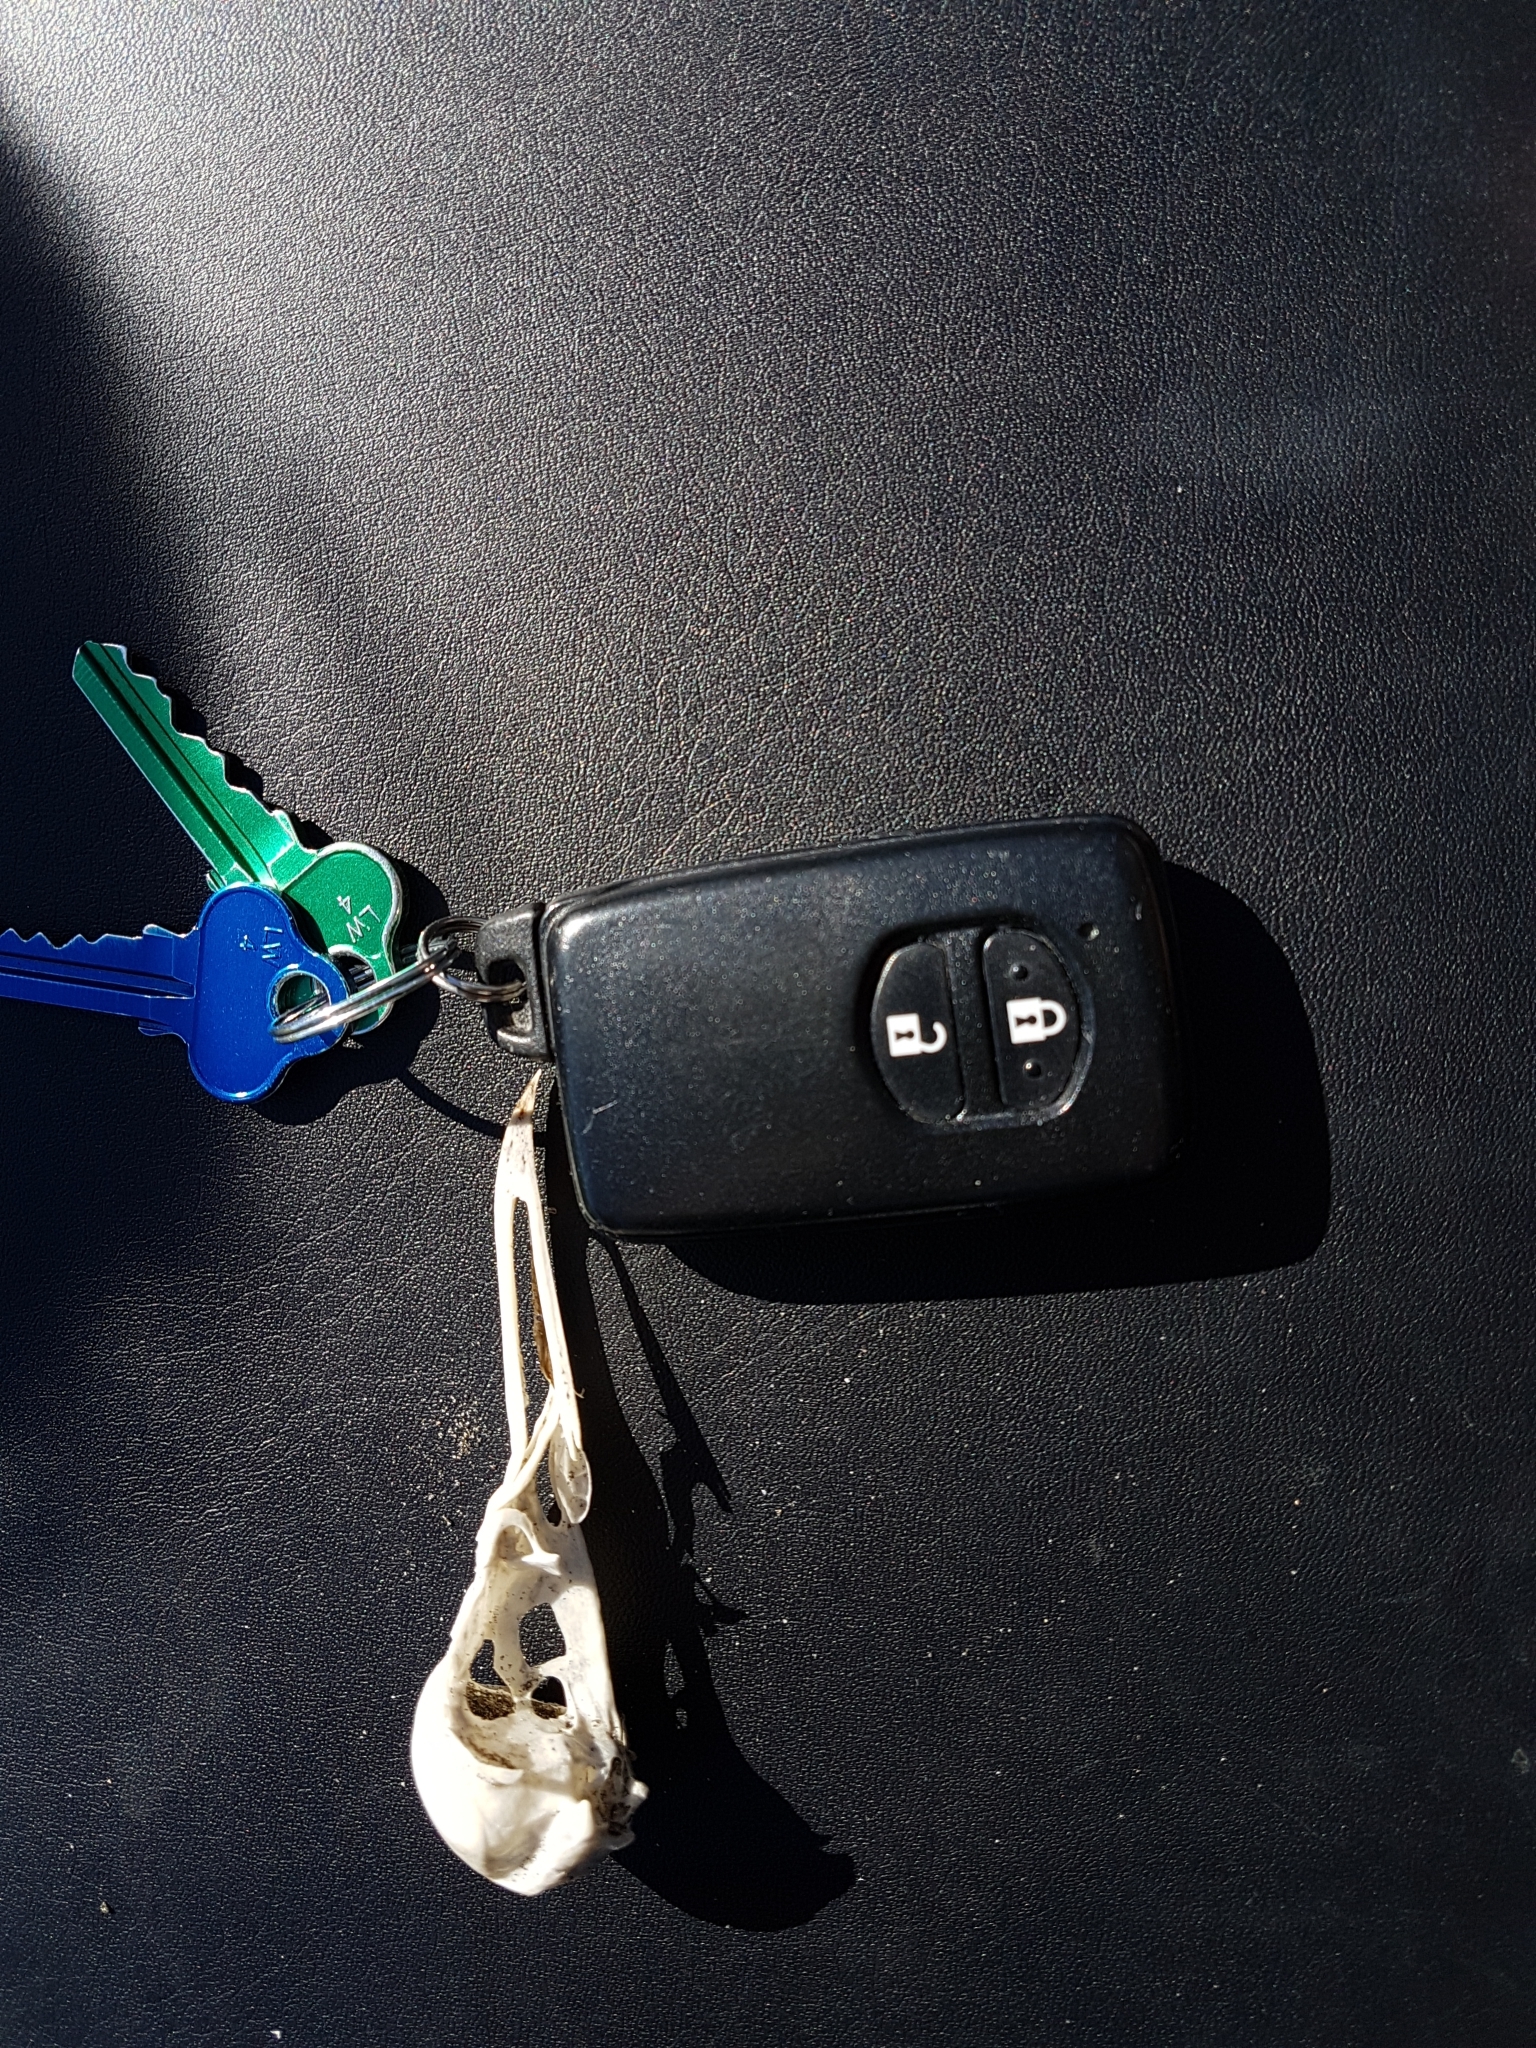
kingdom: Animalia
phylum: Chordata
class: Aves
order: Charadriiformes
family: Laridae
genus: Chroicocephalus
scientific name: Chroicocephalus novaehollandiae
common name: Silver gull
